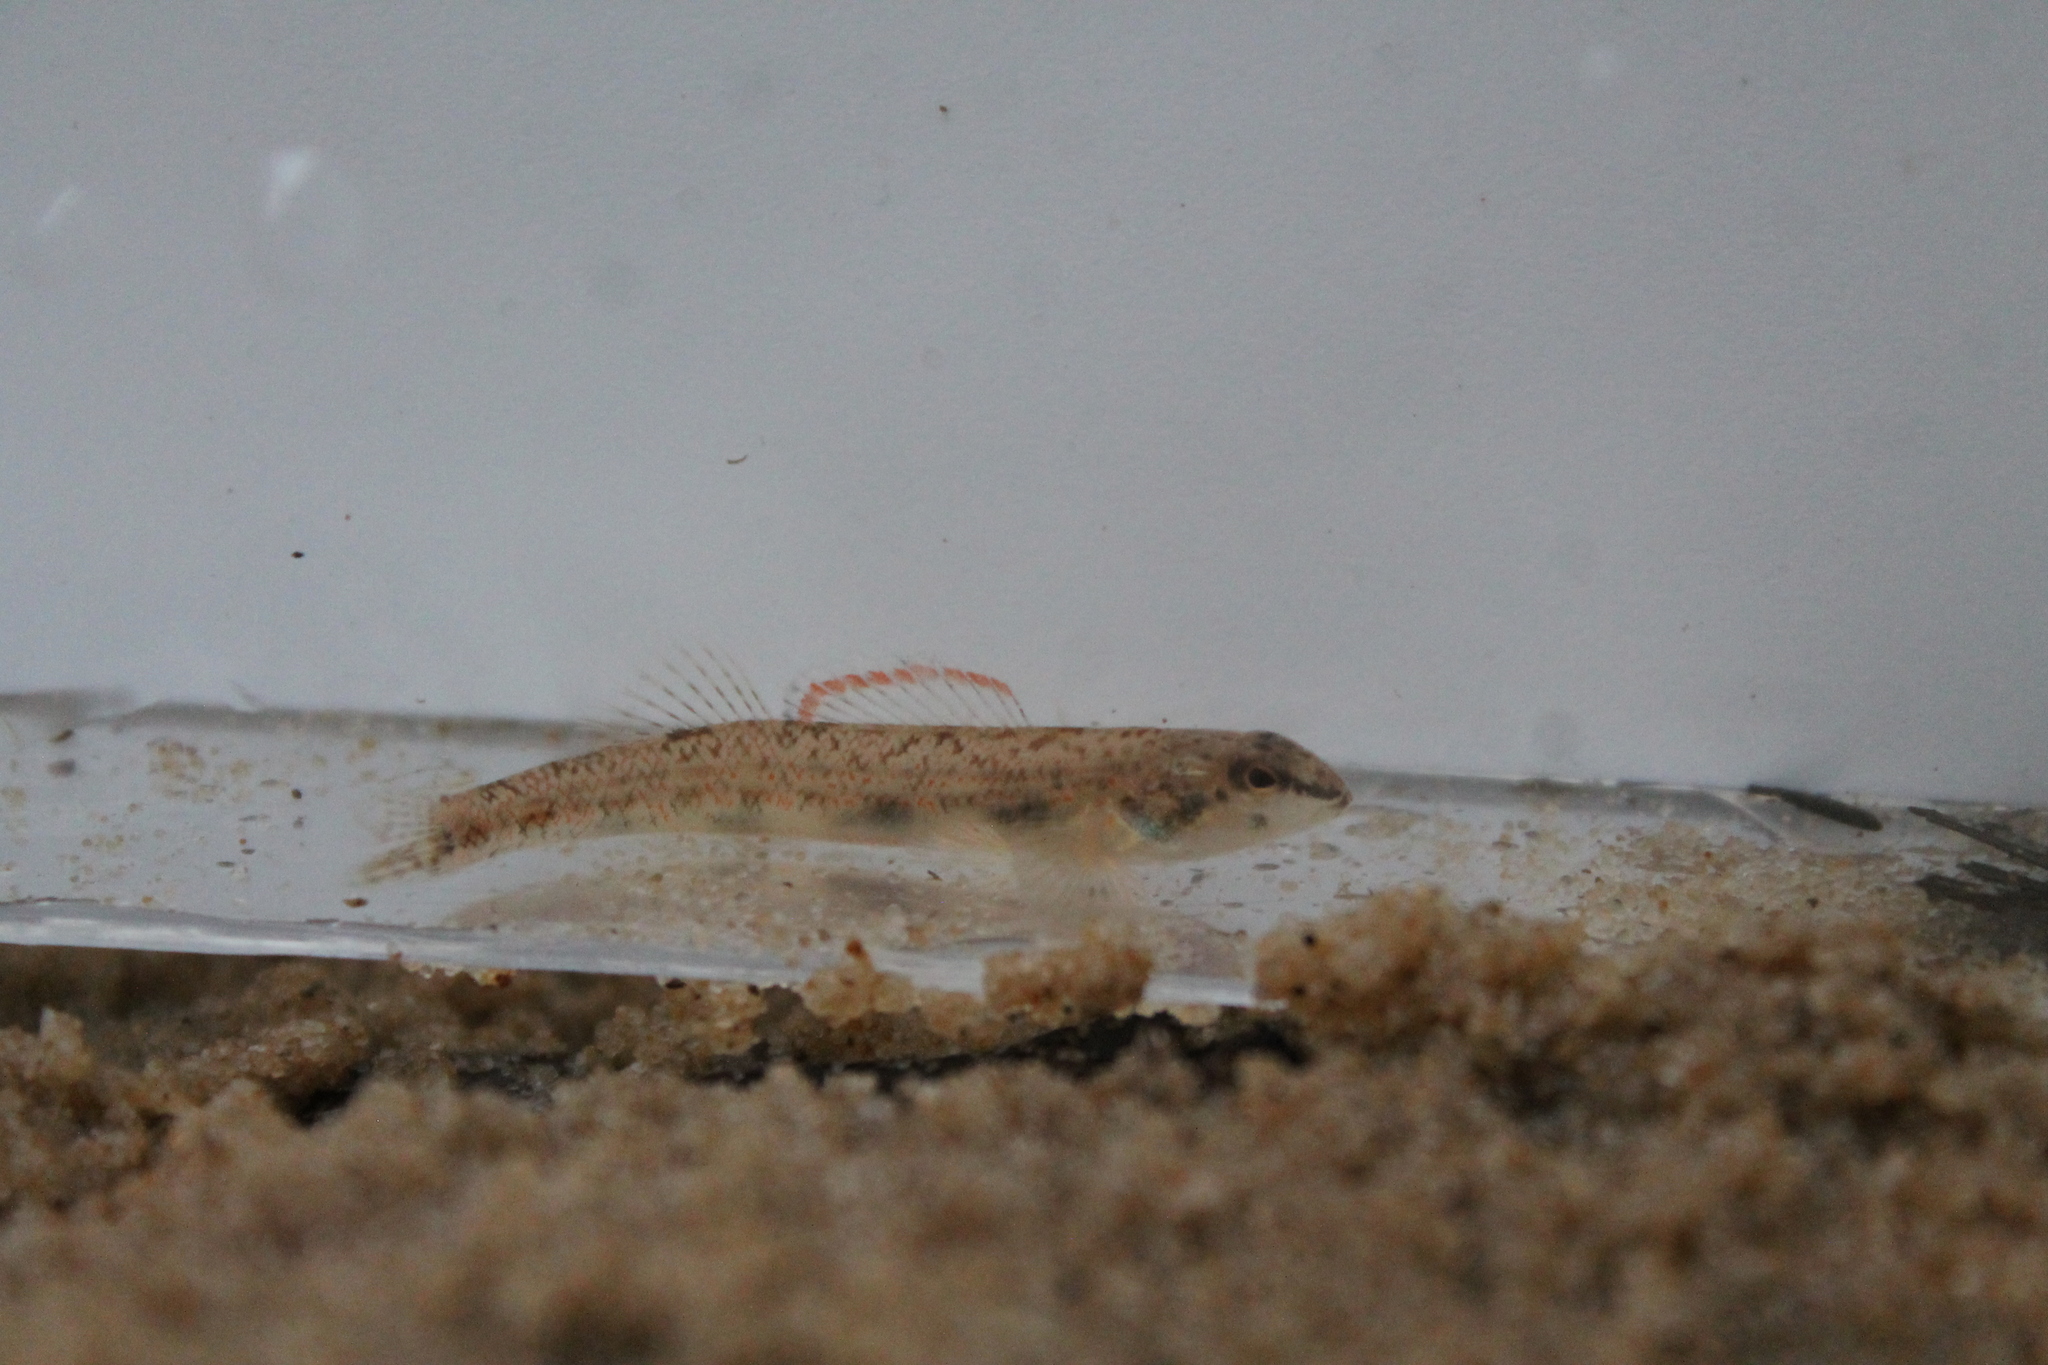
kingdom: Animalia
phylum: Chordata
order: Perciformes
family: Percidae
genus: Etheostoma
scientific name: Etheostoma stigmaeum
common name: Speckled darter
